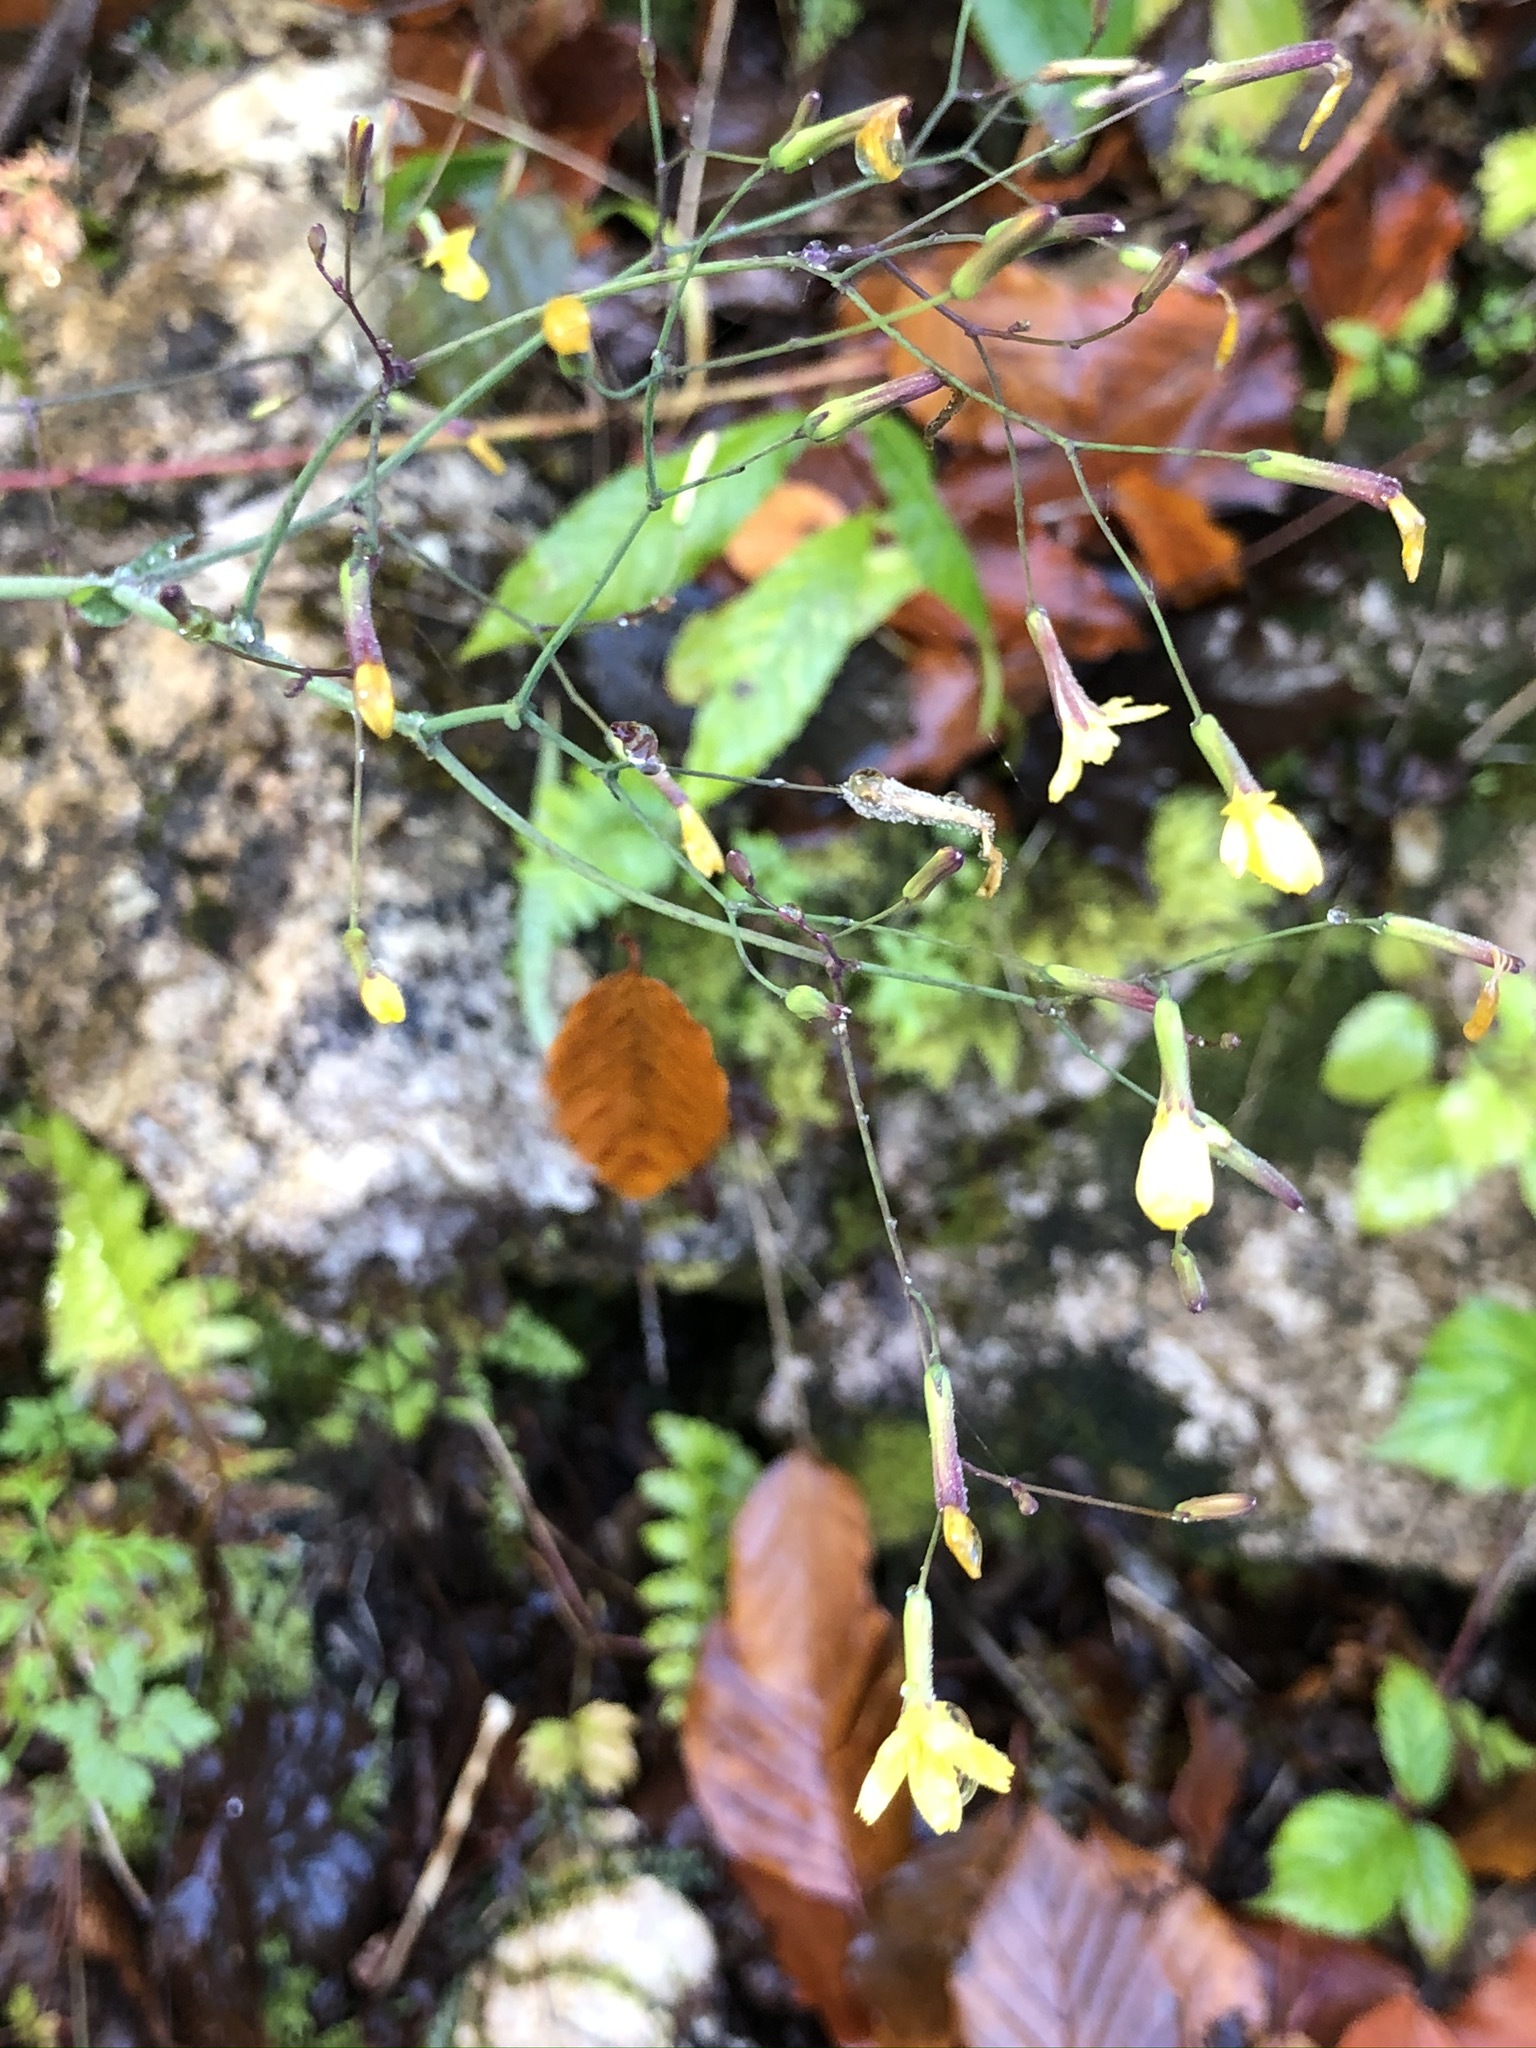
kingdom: Plantae
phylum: Tracheophyta
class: Magnoliopsida
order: Asterales
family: Asteraceae
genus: Mycelis
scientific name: Mycelis muralis
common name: Wall lettuce
